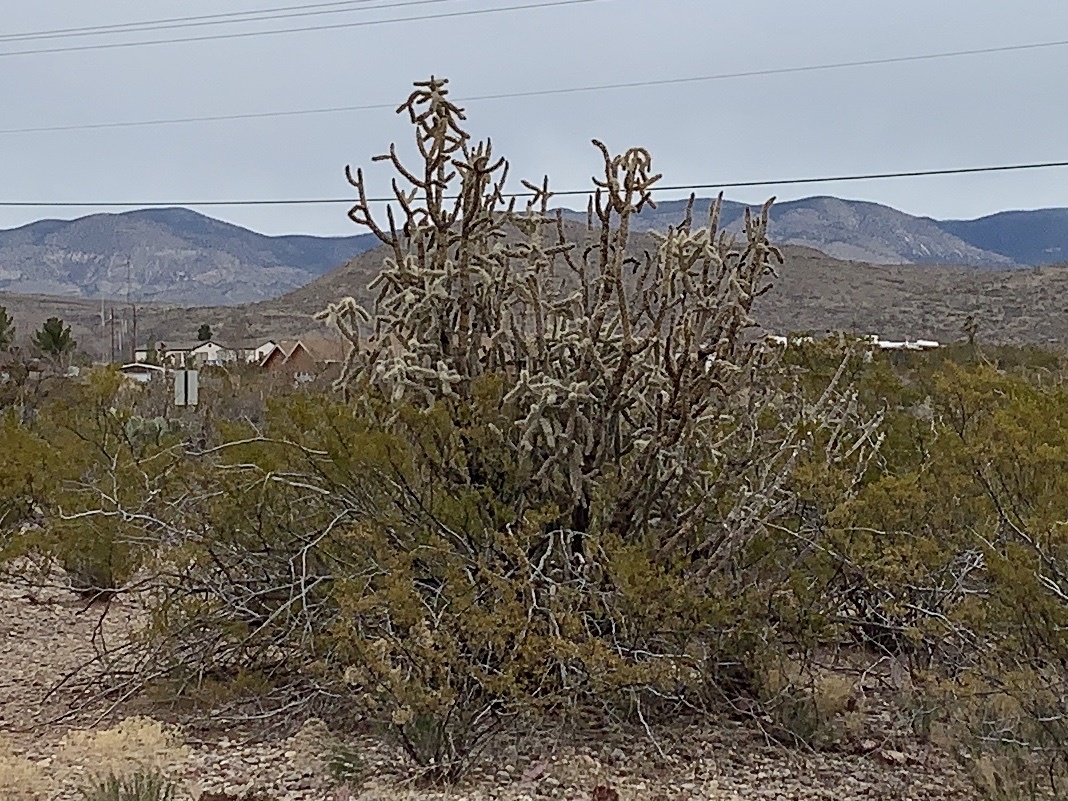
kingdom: Plantae
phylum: Tracheophyta
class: Magnoliopsida
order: Caryophyllales
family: Cactaceae
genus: Cylindropuntia
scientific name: Cylindropuntia imbricata
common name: Candelabrum cactus
